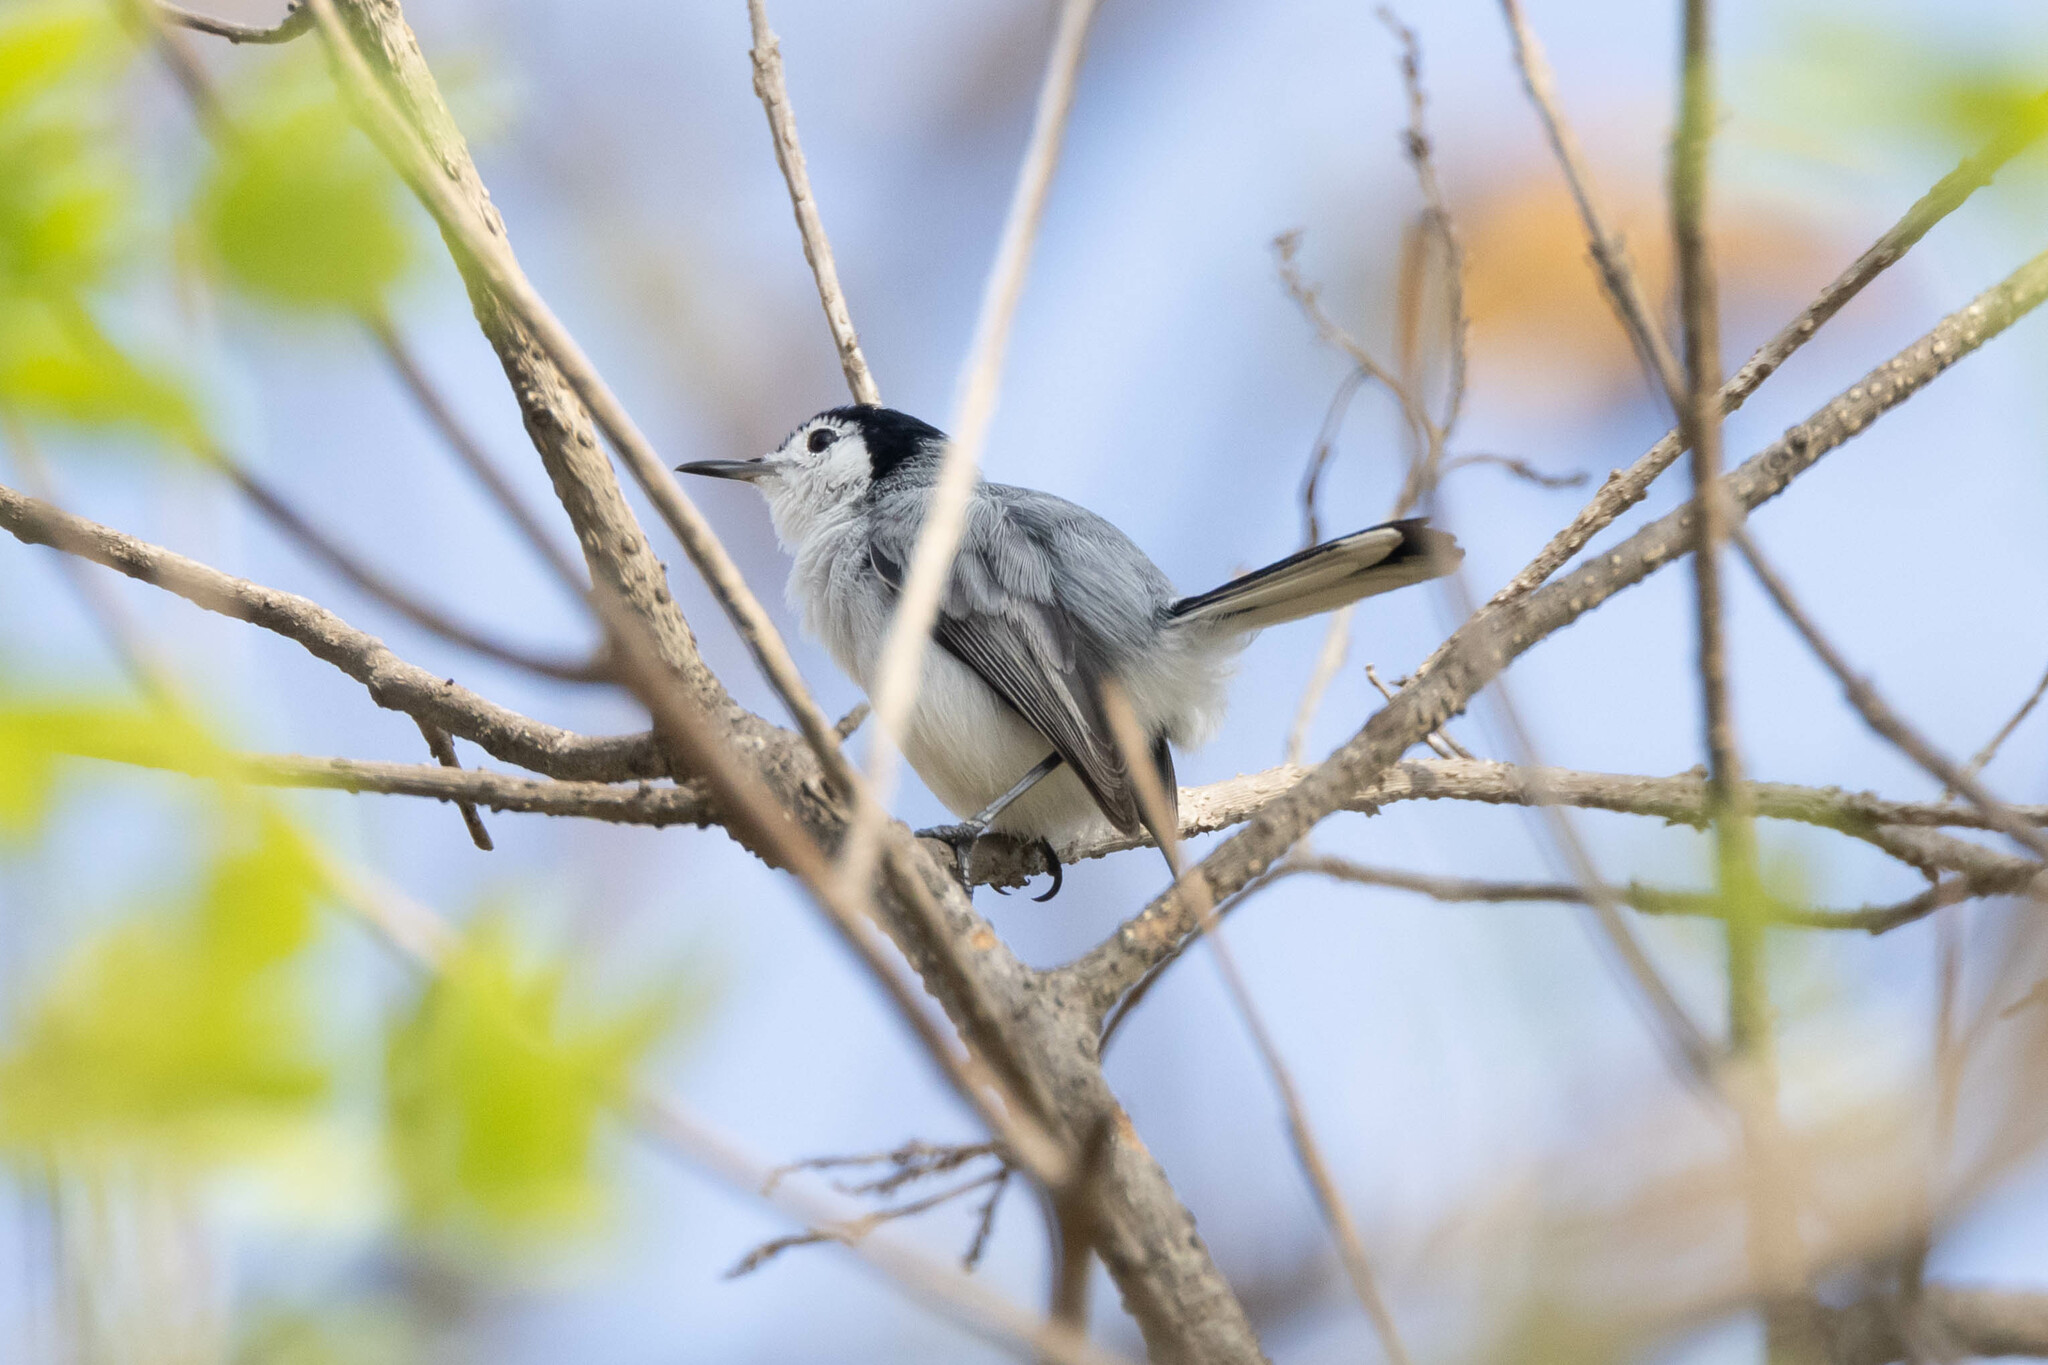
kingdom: Animalia
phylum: Chordata
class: Aves
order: Passeriformes
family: Polioptilidae
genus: Polioptila
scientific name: Polioptila plumbea
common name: Tropical gnatcatcher
